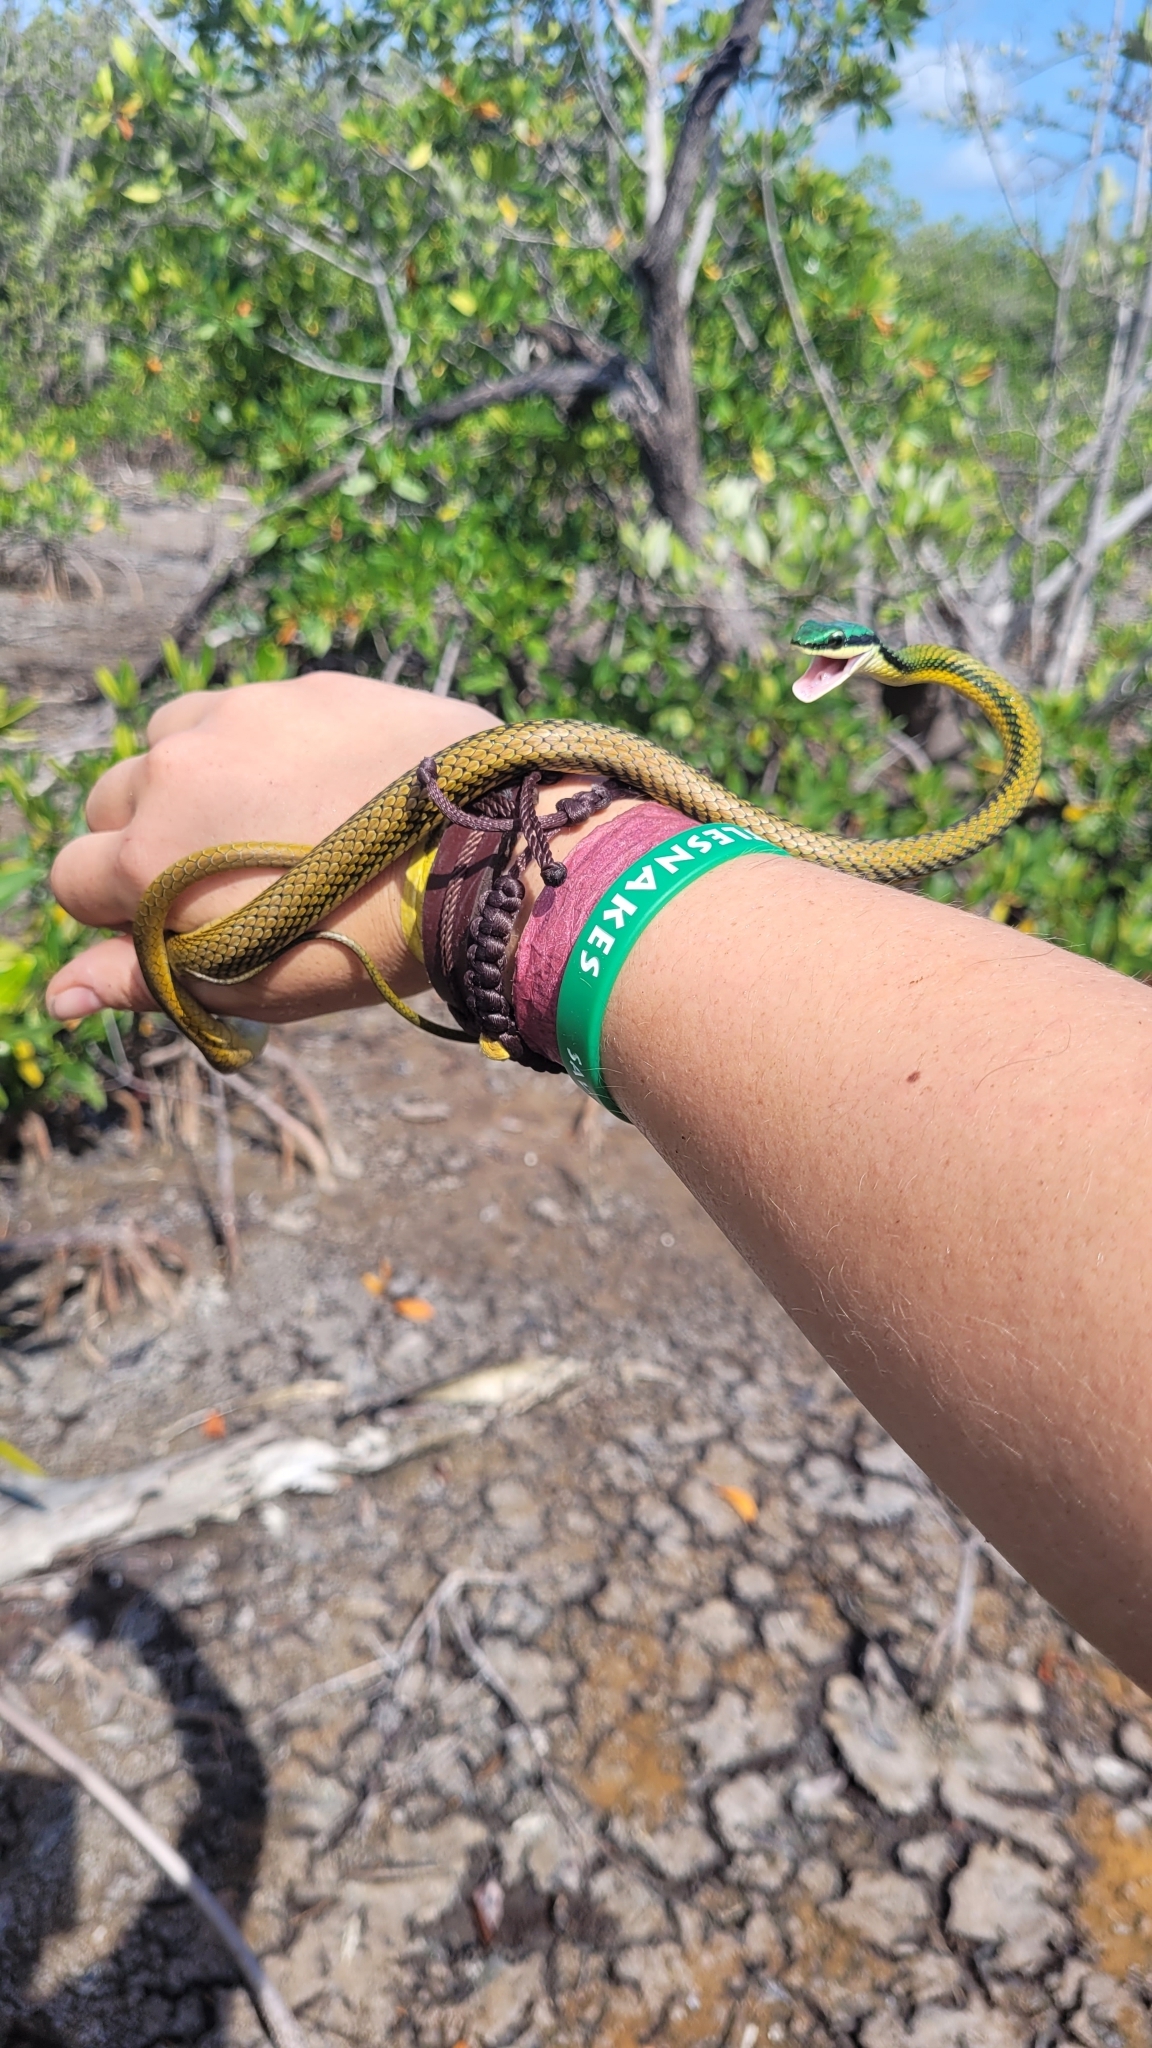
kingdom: Animalia
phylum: Chordata
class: Squamata
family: Colubridae
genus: Leptophis
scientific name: Leptophis mexicanus
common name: Mexican parrot snake
